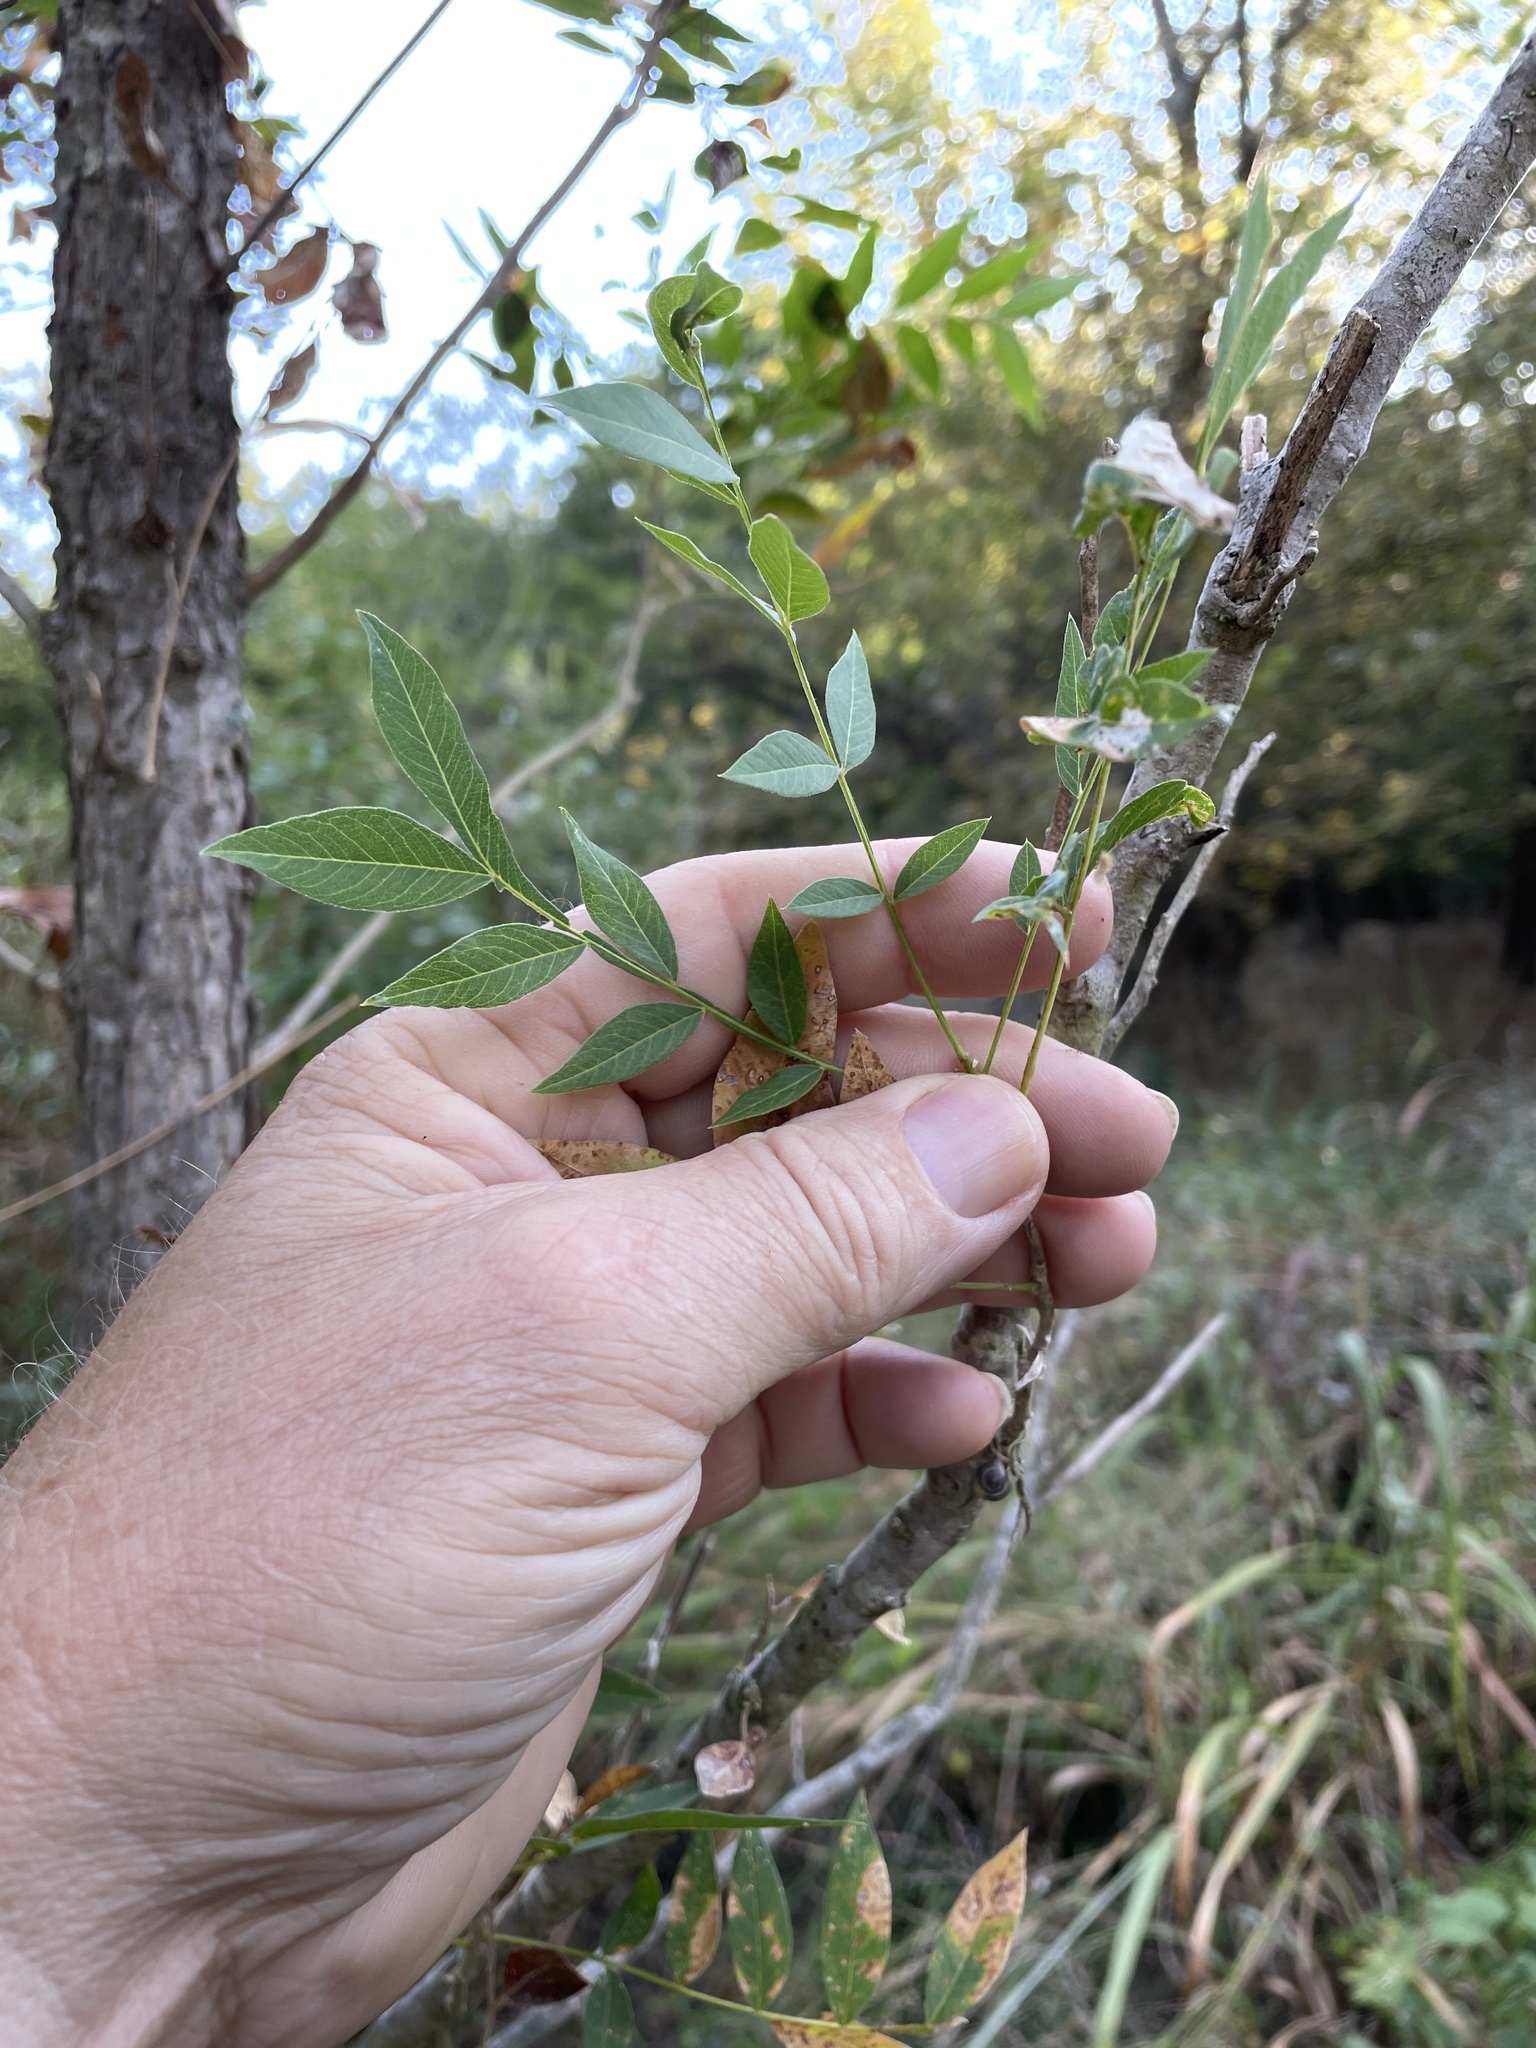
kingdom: Plantae
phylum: Tracheophyta
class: Magnoliopsida
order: Sapindales
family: Sapindaceae
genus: Sapindus
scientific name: Sapindus drummondii
